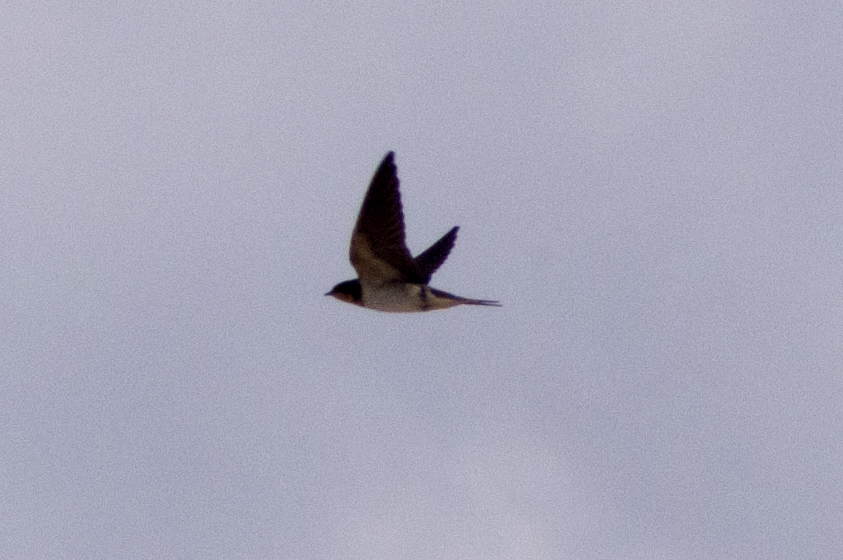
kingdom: Animalia
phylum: Chordata
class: Aves
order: Passeriformes
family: Hirundinidae
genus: Hirundo
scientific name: Hirundo rustica
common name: Barn swallow
